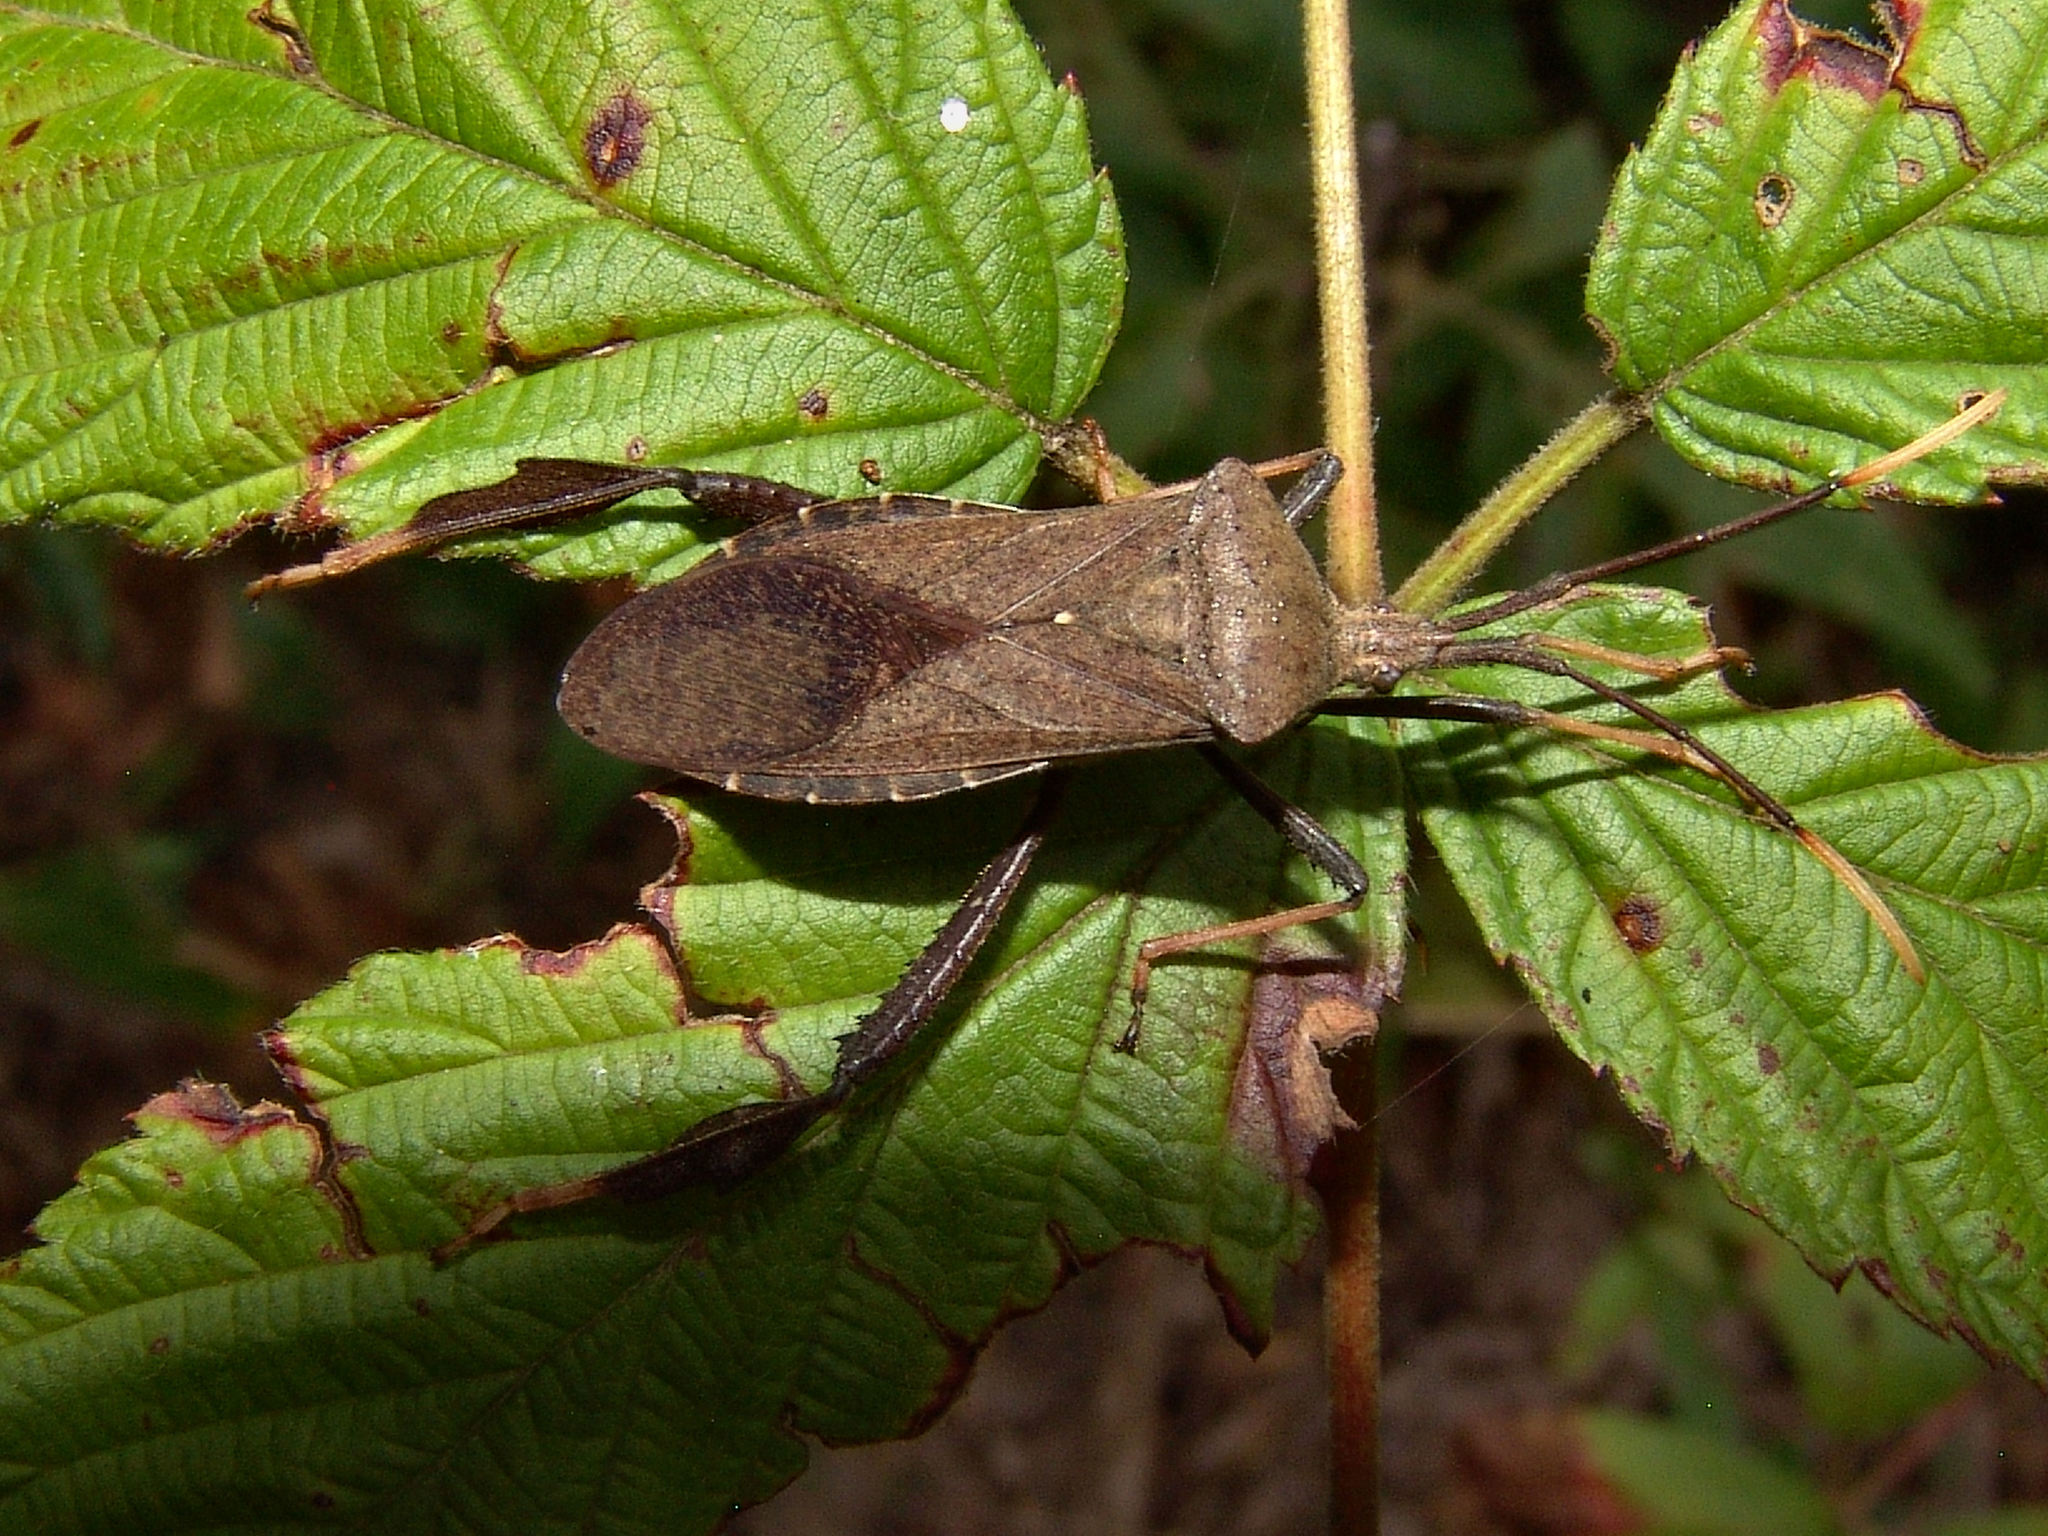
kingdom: Animalia
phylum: Arthropoda
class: Insecta
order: Hemiptera
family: Coreidae
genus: Acanthocephala
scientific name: Acanthocephala terminalis
